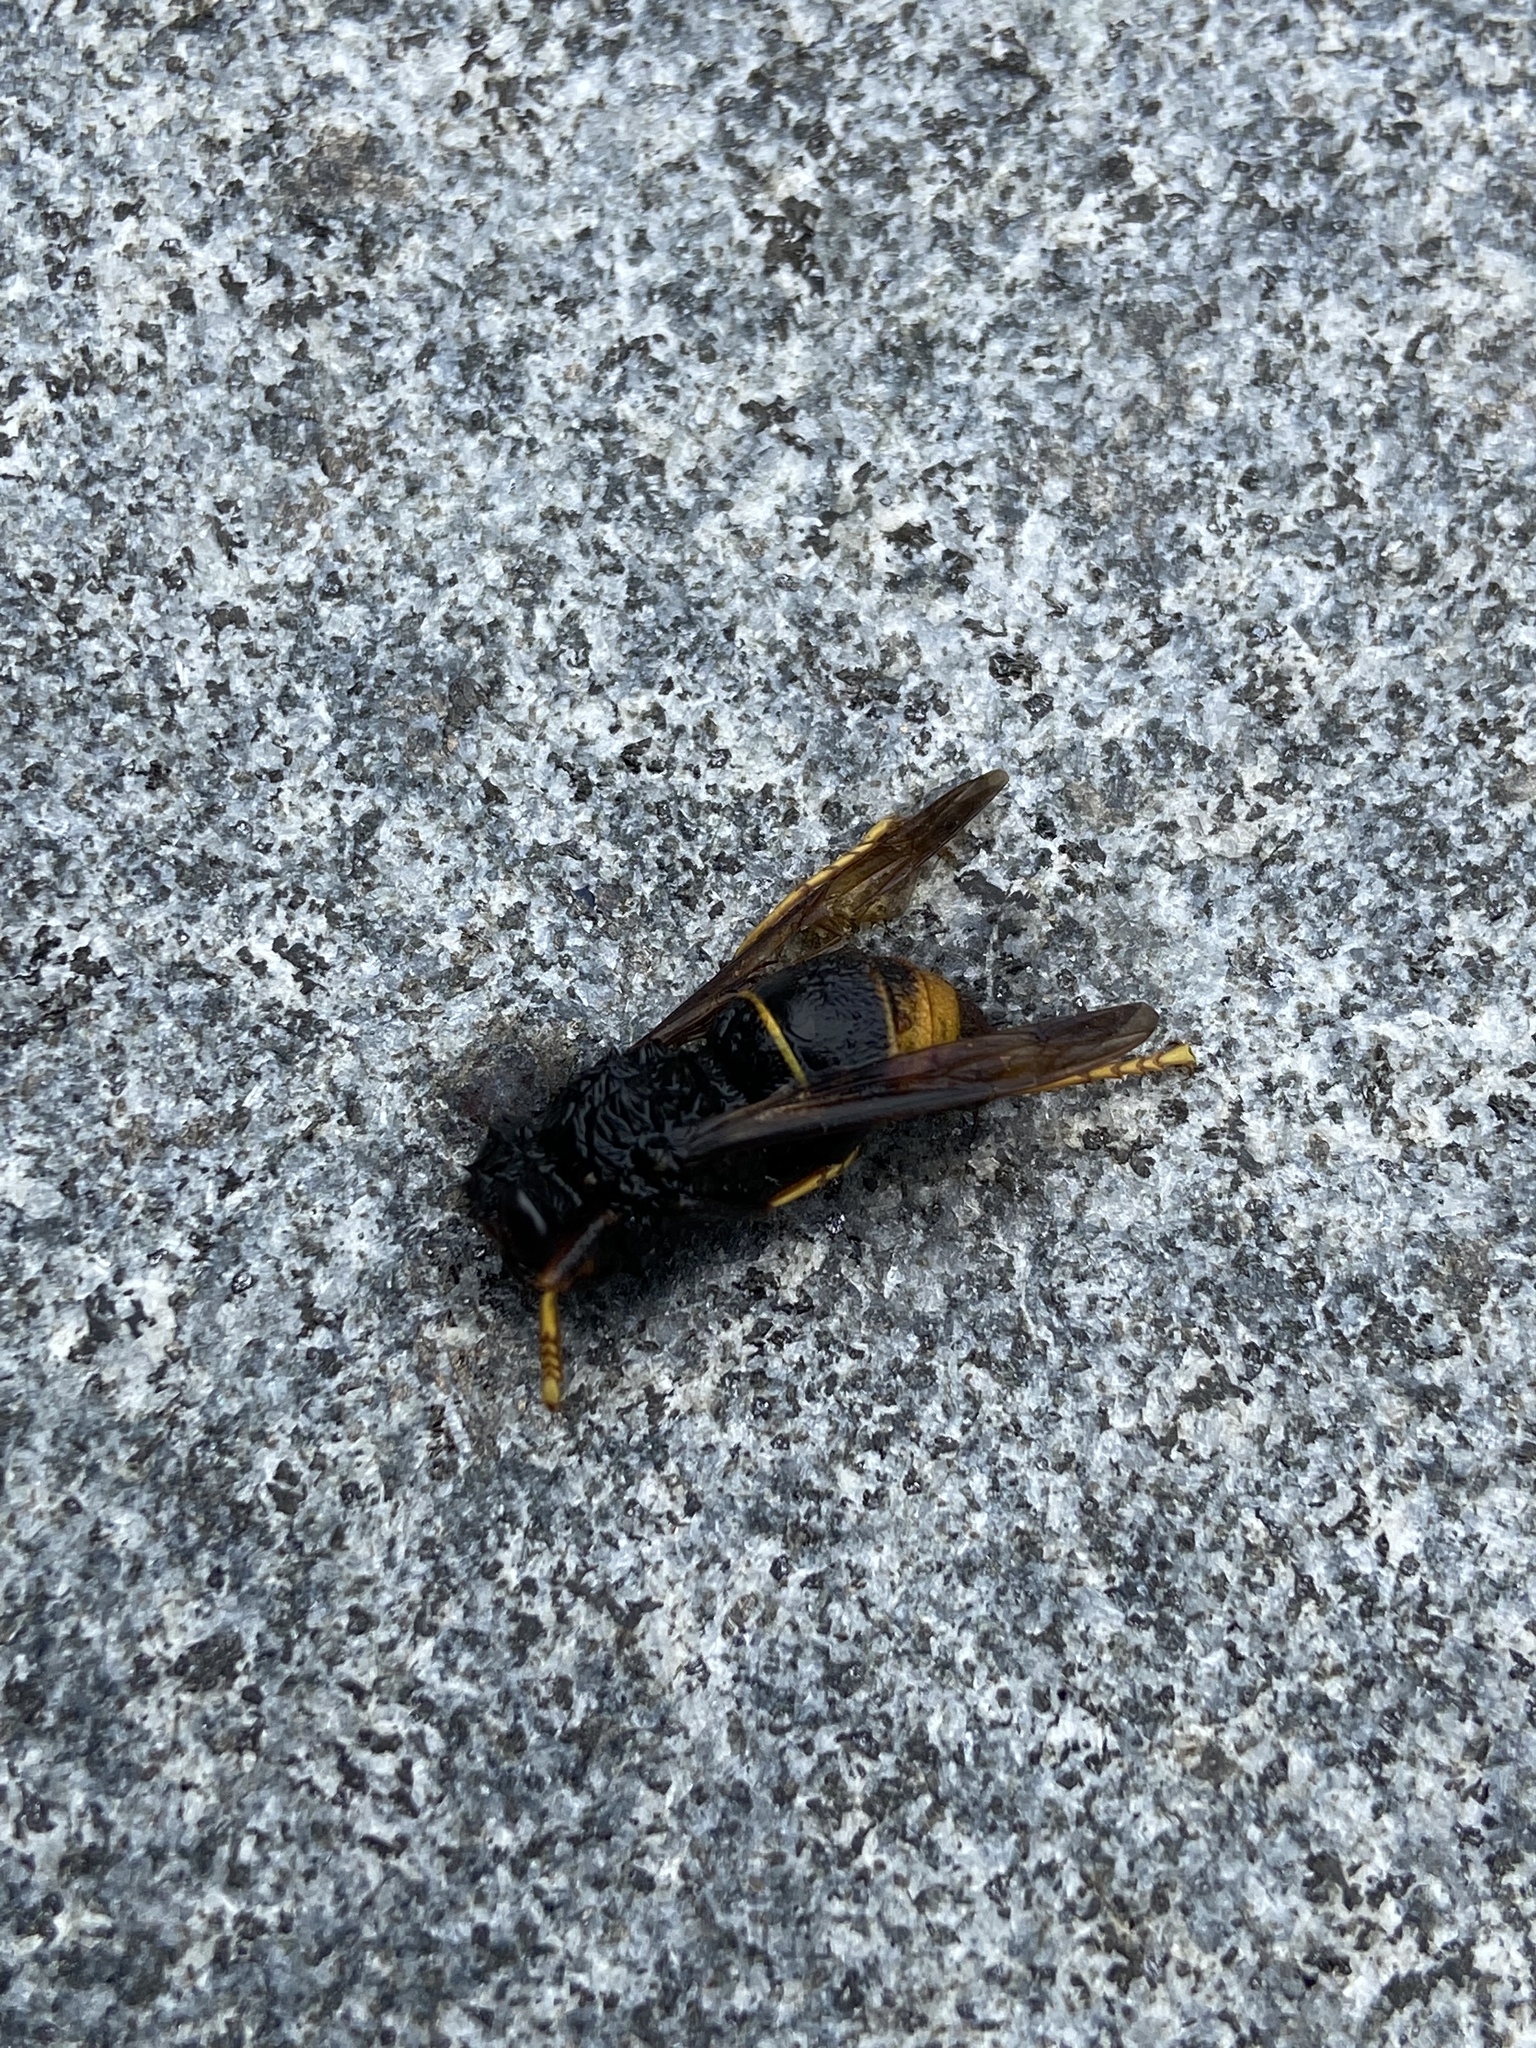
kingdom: Animalia
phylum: Arthropoda
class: Insecta
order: Hymenoptera
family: Vespidae
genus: Vespa
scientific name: Vespa velutina
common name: Asian hornet
